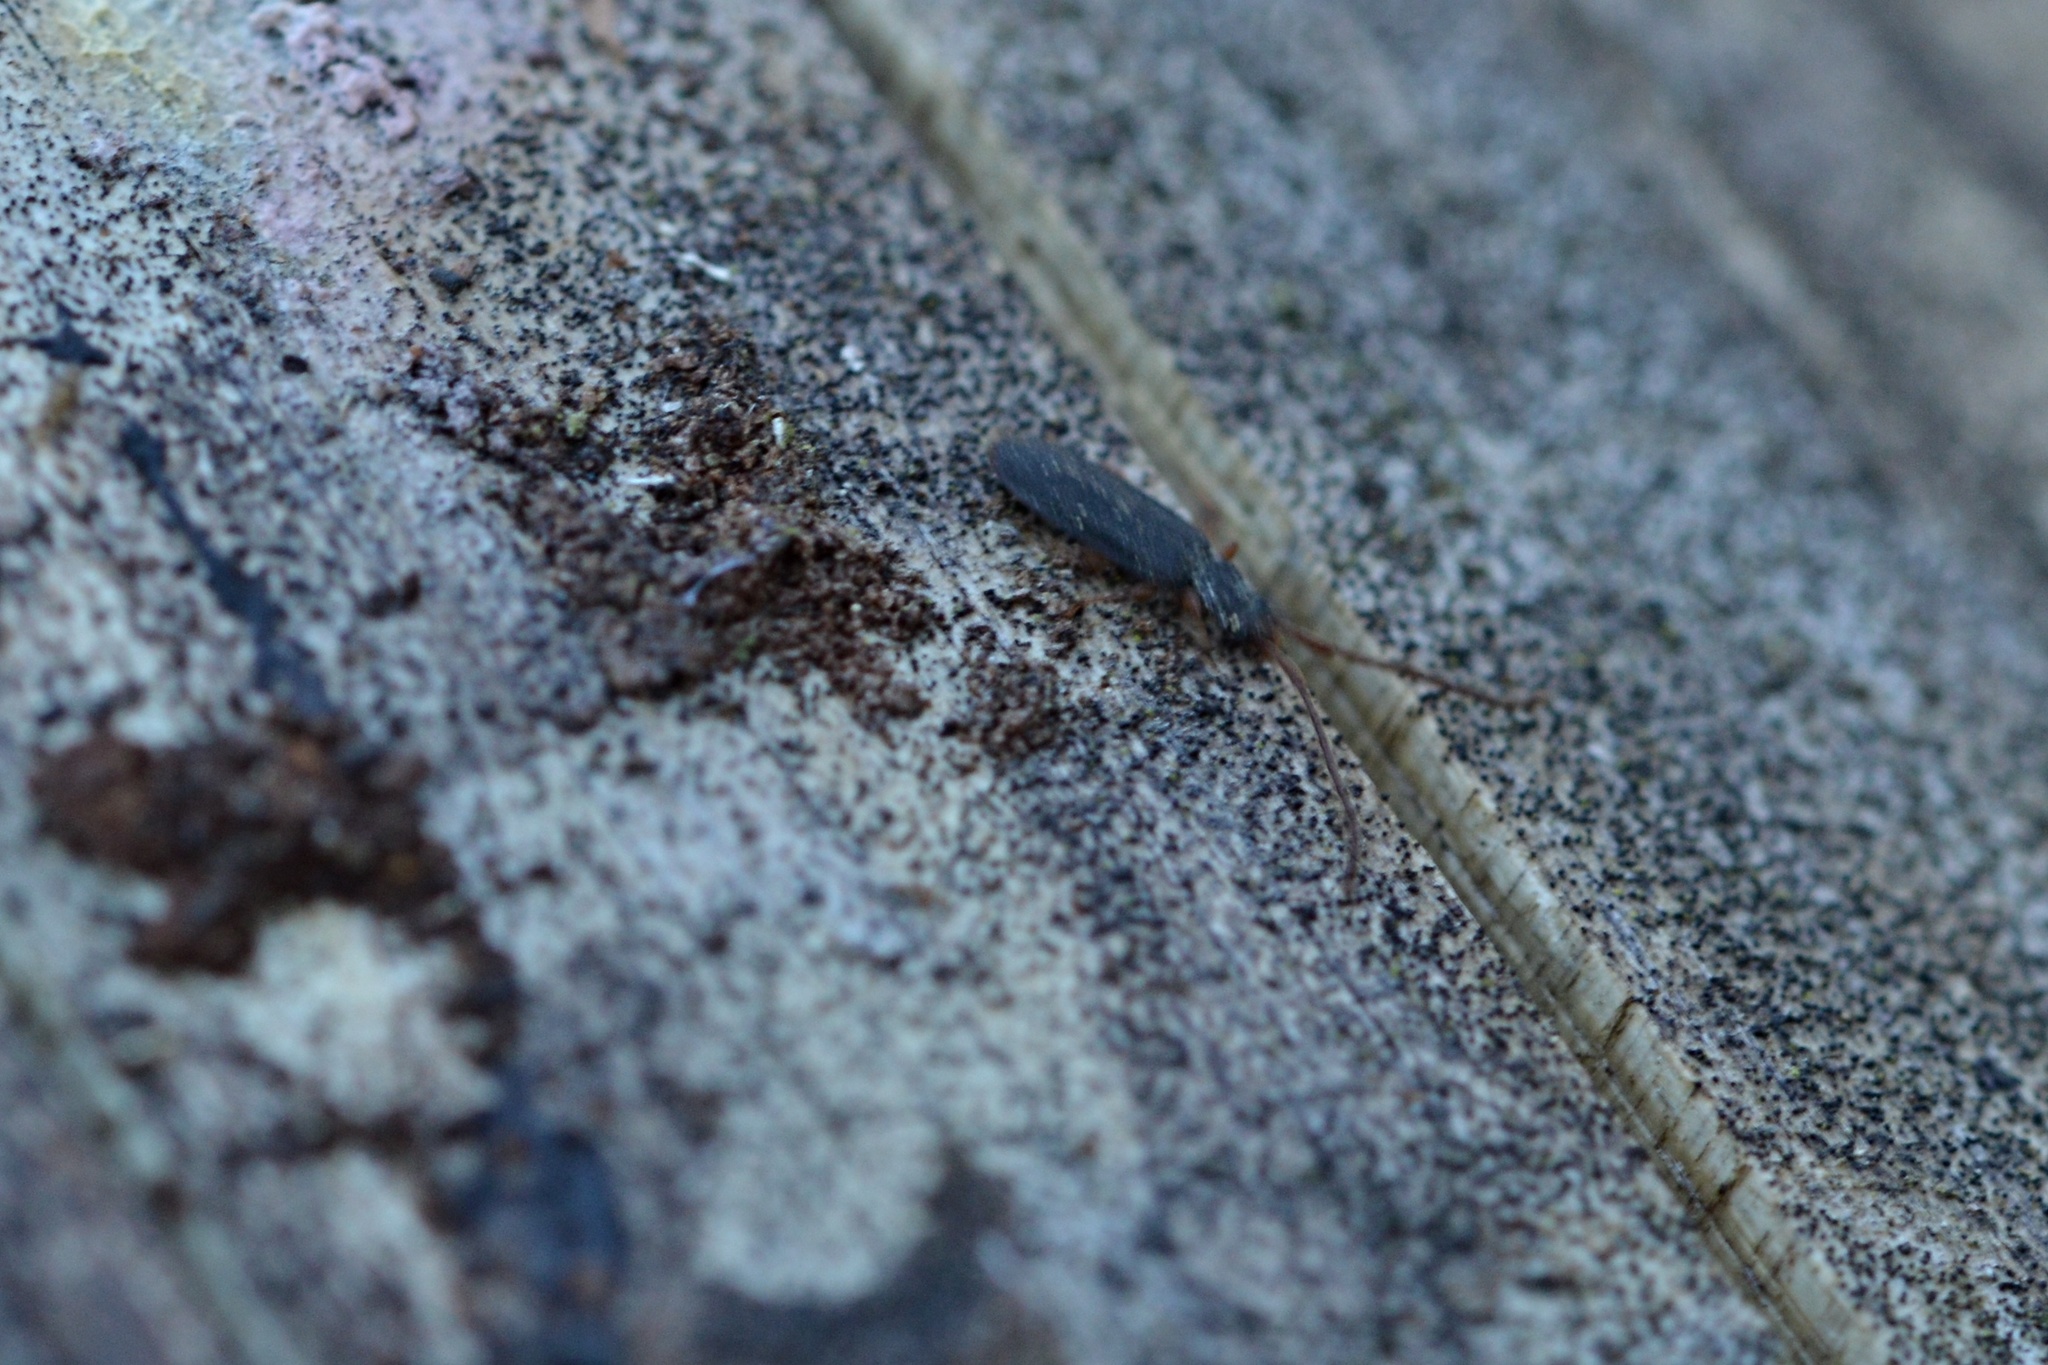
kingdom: Animalia
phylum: Arthropoda
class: Insecta
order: Coleoptera
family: Silvanidae
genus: Uleiota
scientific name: Uleiota planatus
